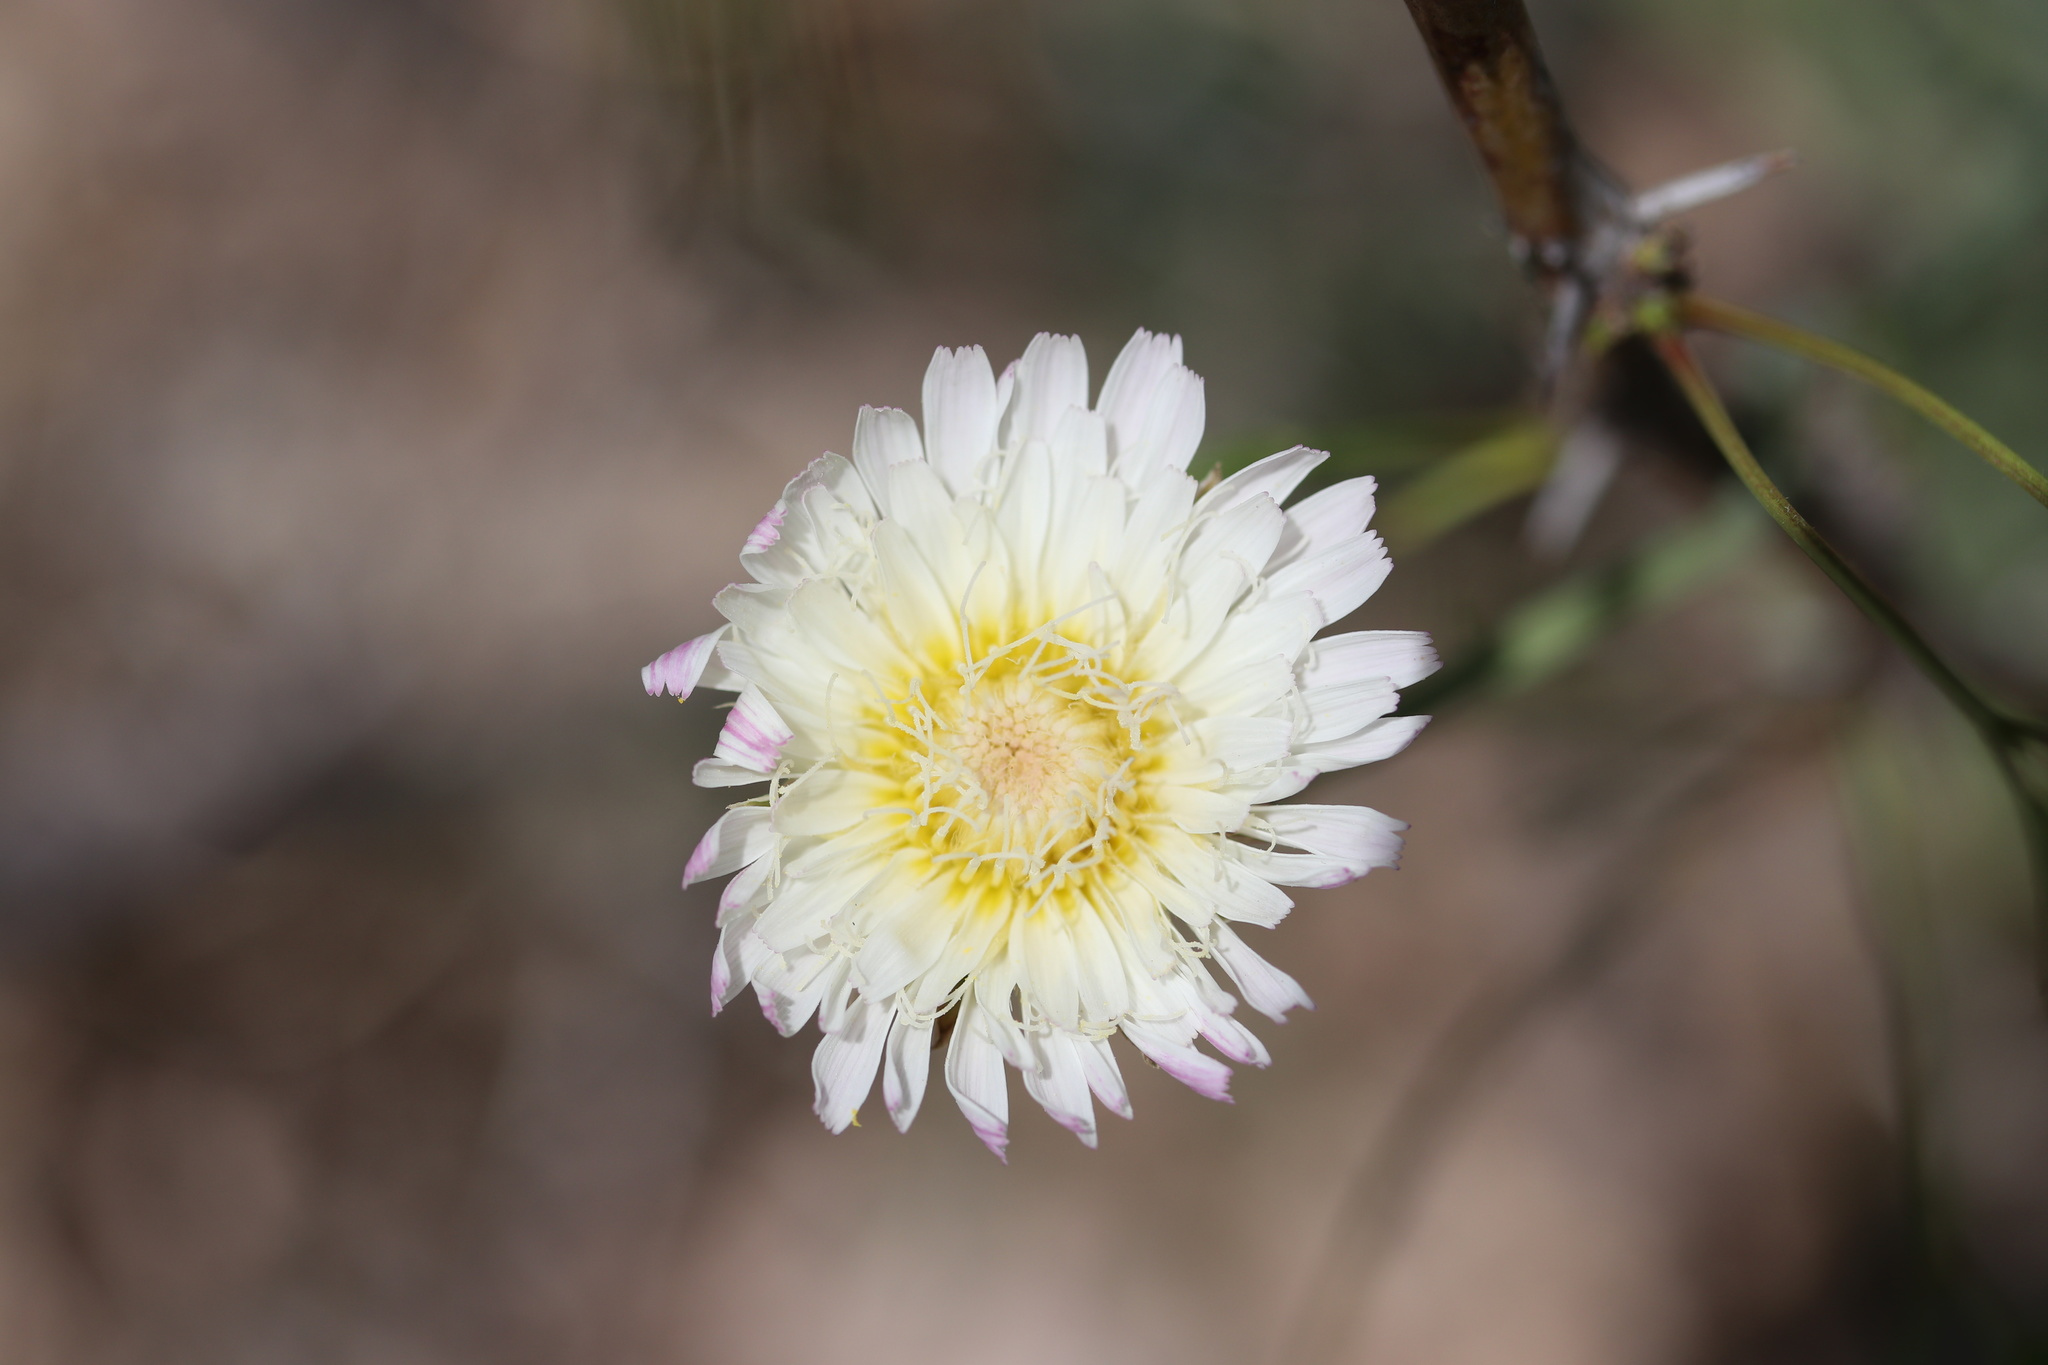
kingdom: Plantae
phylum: Tracheophyta
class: Magnoliopsida
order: Asterales
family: Asteraceae
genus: Pinaropappus
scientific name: Pinaropappus roseus
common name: Rock-lettuce
